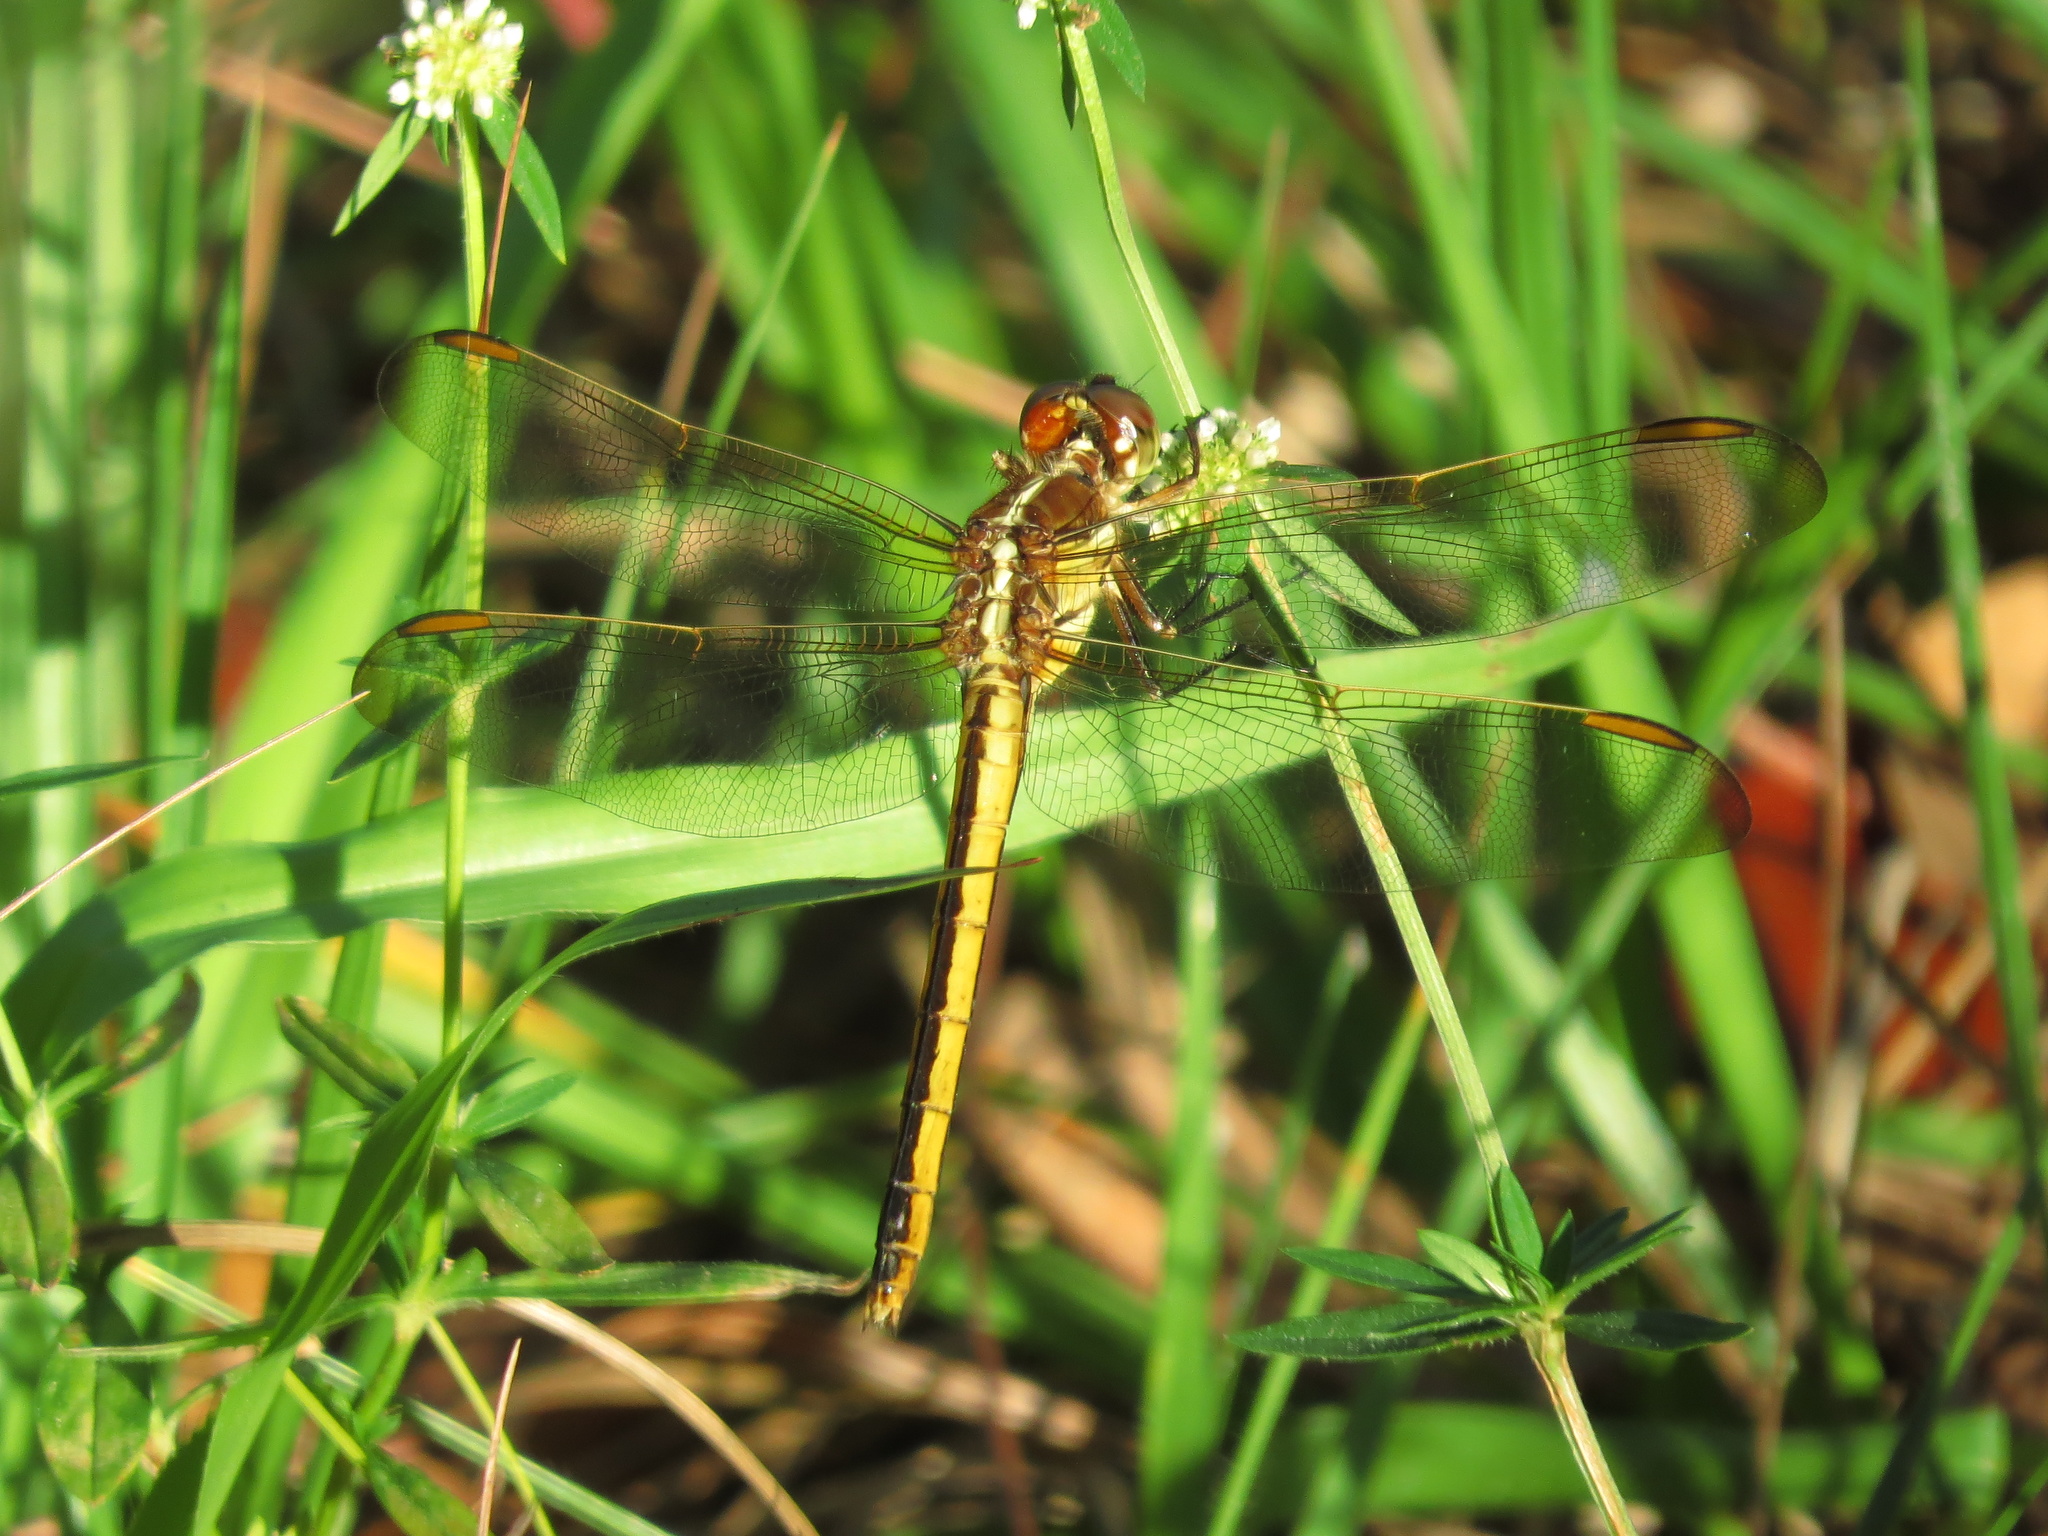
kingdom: Animalia
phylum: Arthropoda
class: Insecta
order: Odonata
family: Libellulidae
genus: Libellula
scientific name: Libellula auripennis
